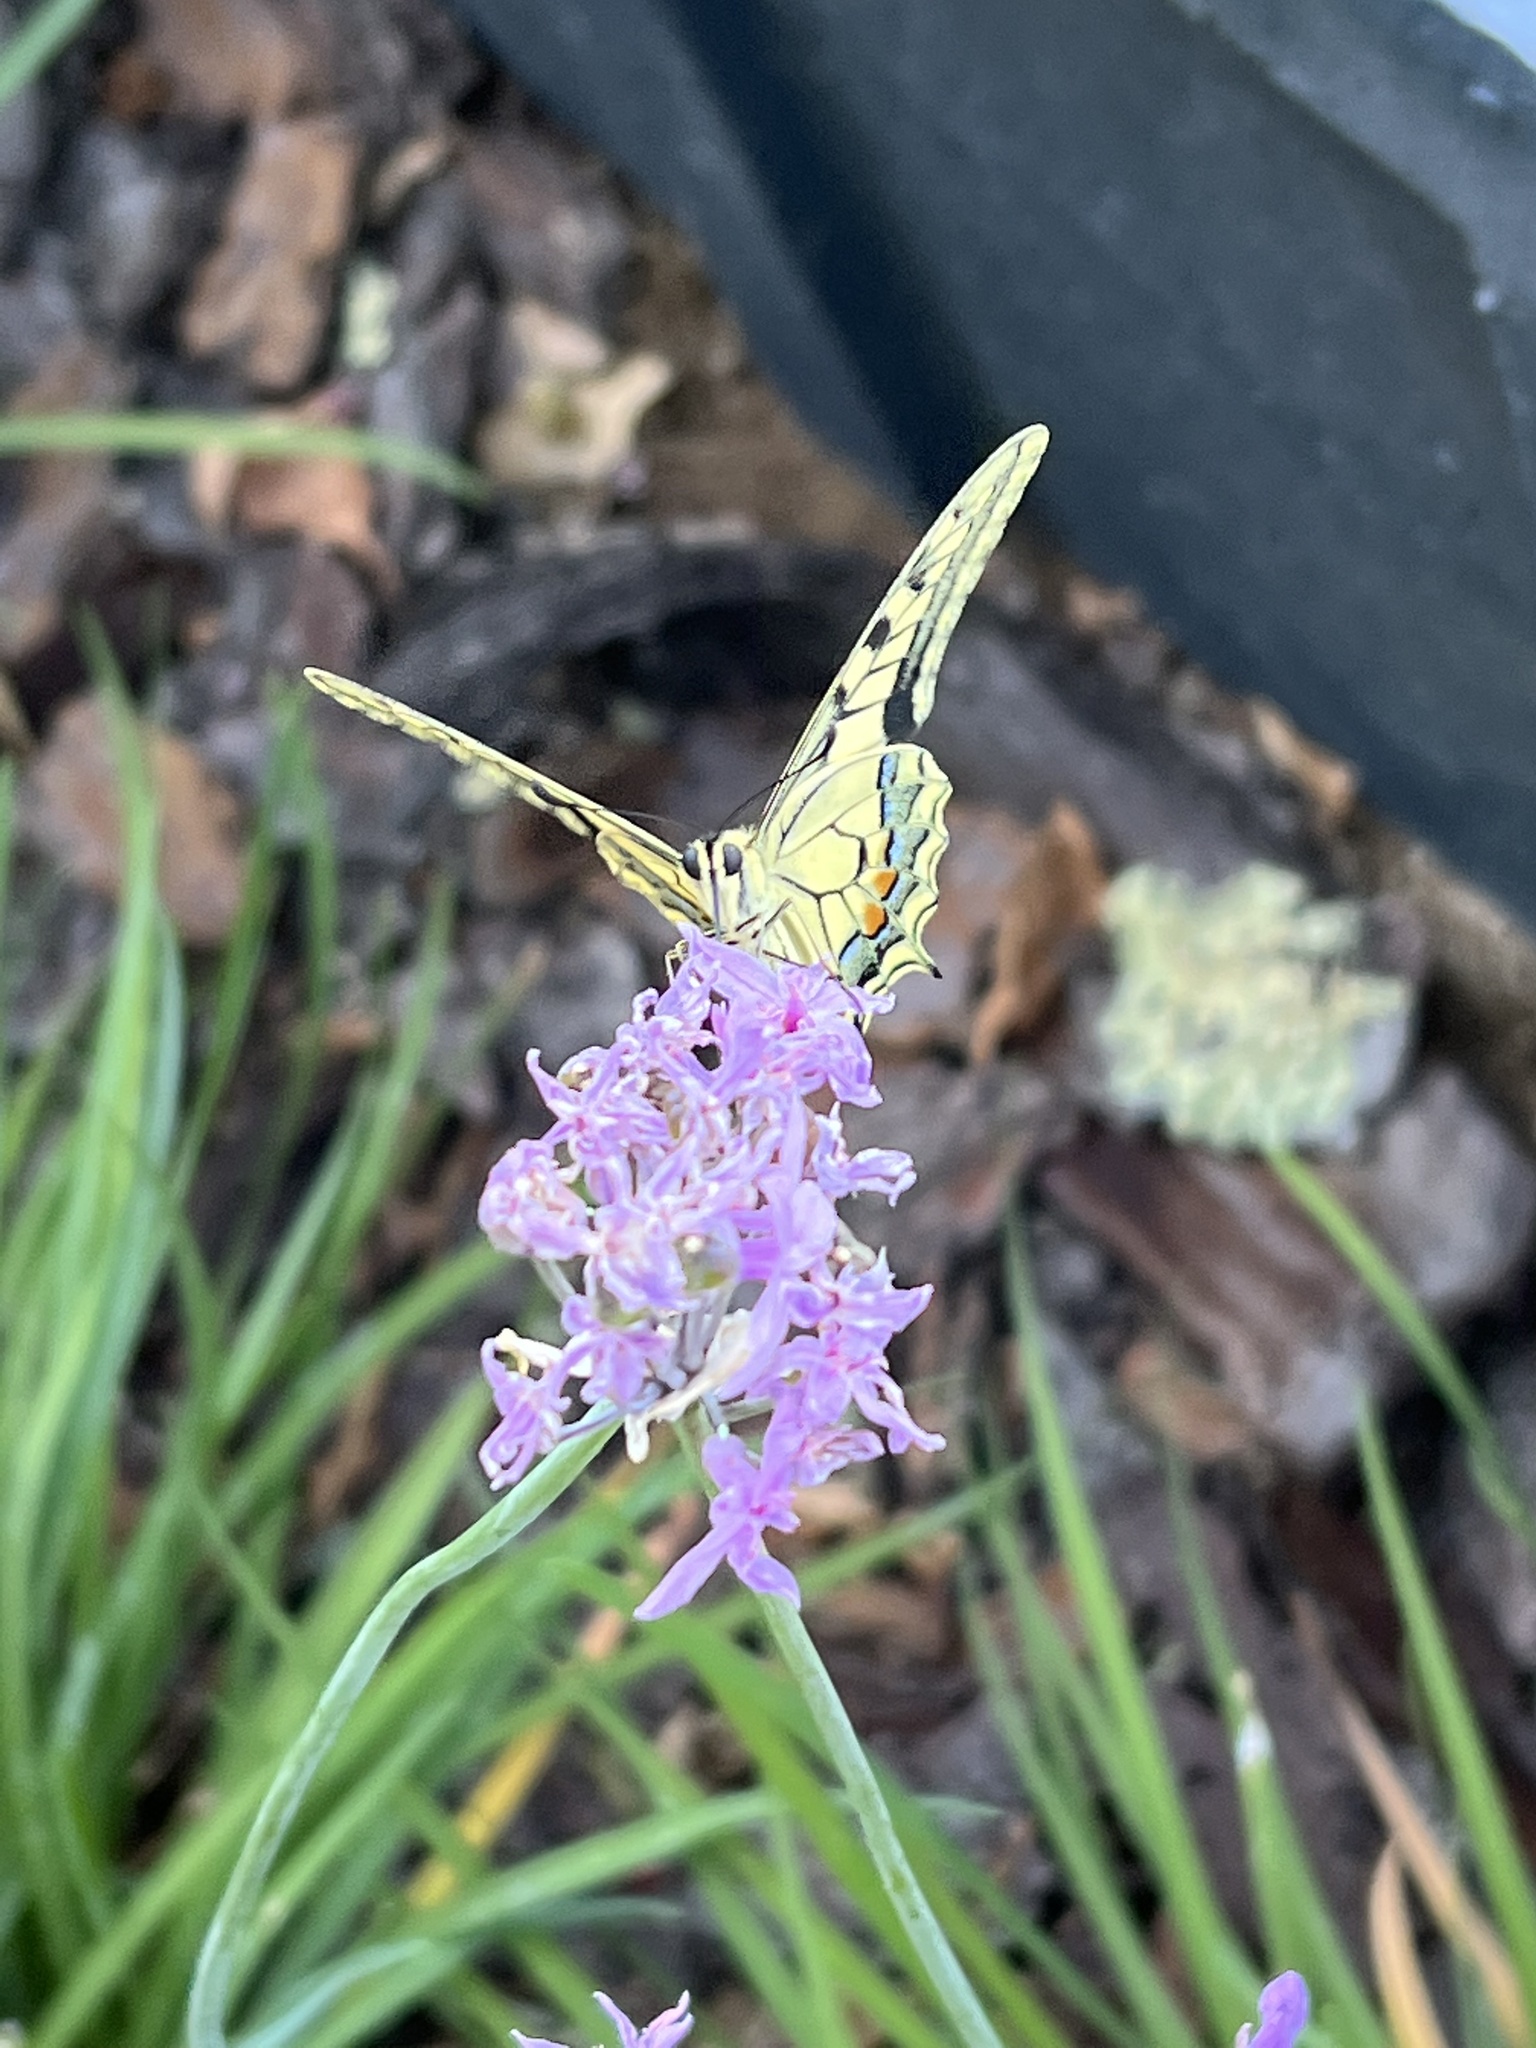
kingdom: Animalia
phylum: Arthropoda
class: Insecta
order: Lepidoptera
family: Papilionidae
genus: Papilio
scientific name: Papilio machaon
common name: Swallowtail
